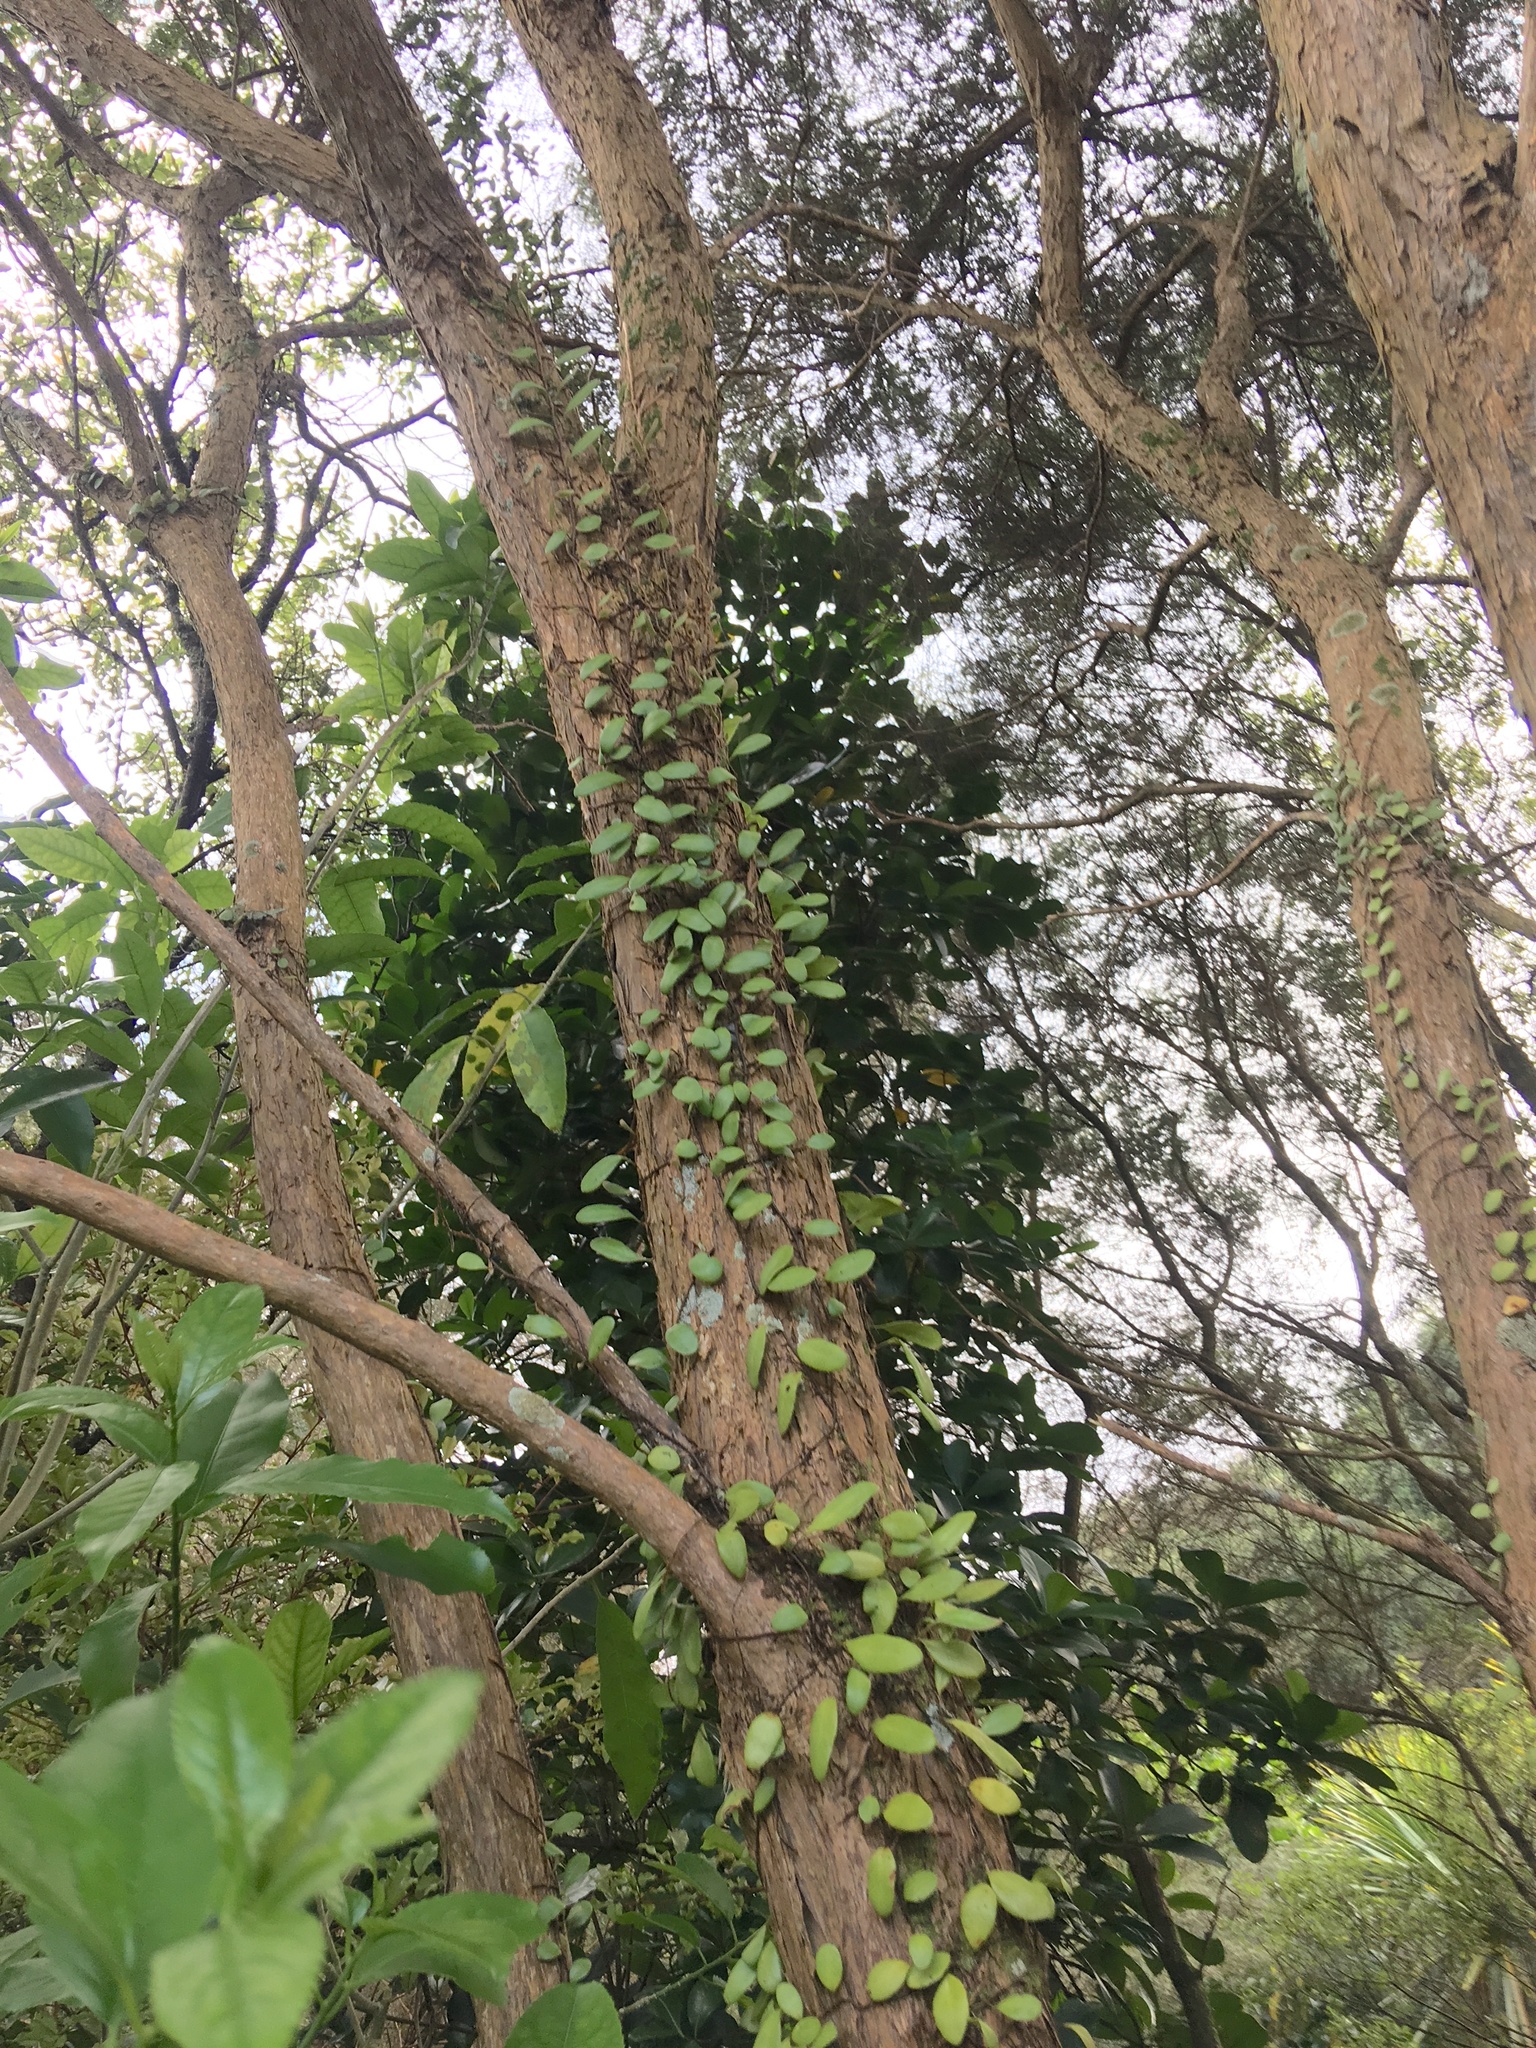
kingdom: Plantae
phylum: Tracheophyta
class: Polypodiopsida
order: Polypodiales
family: Polypodiaceae
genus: Pyrrosia
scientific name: Pyrrosia eleagnifolia
